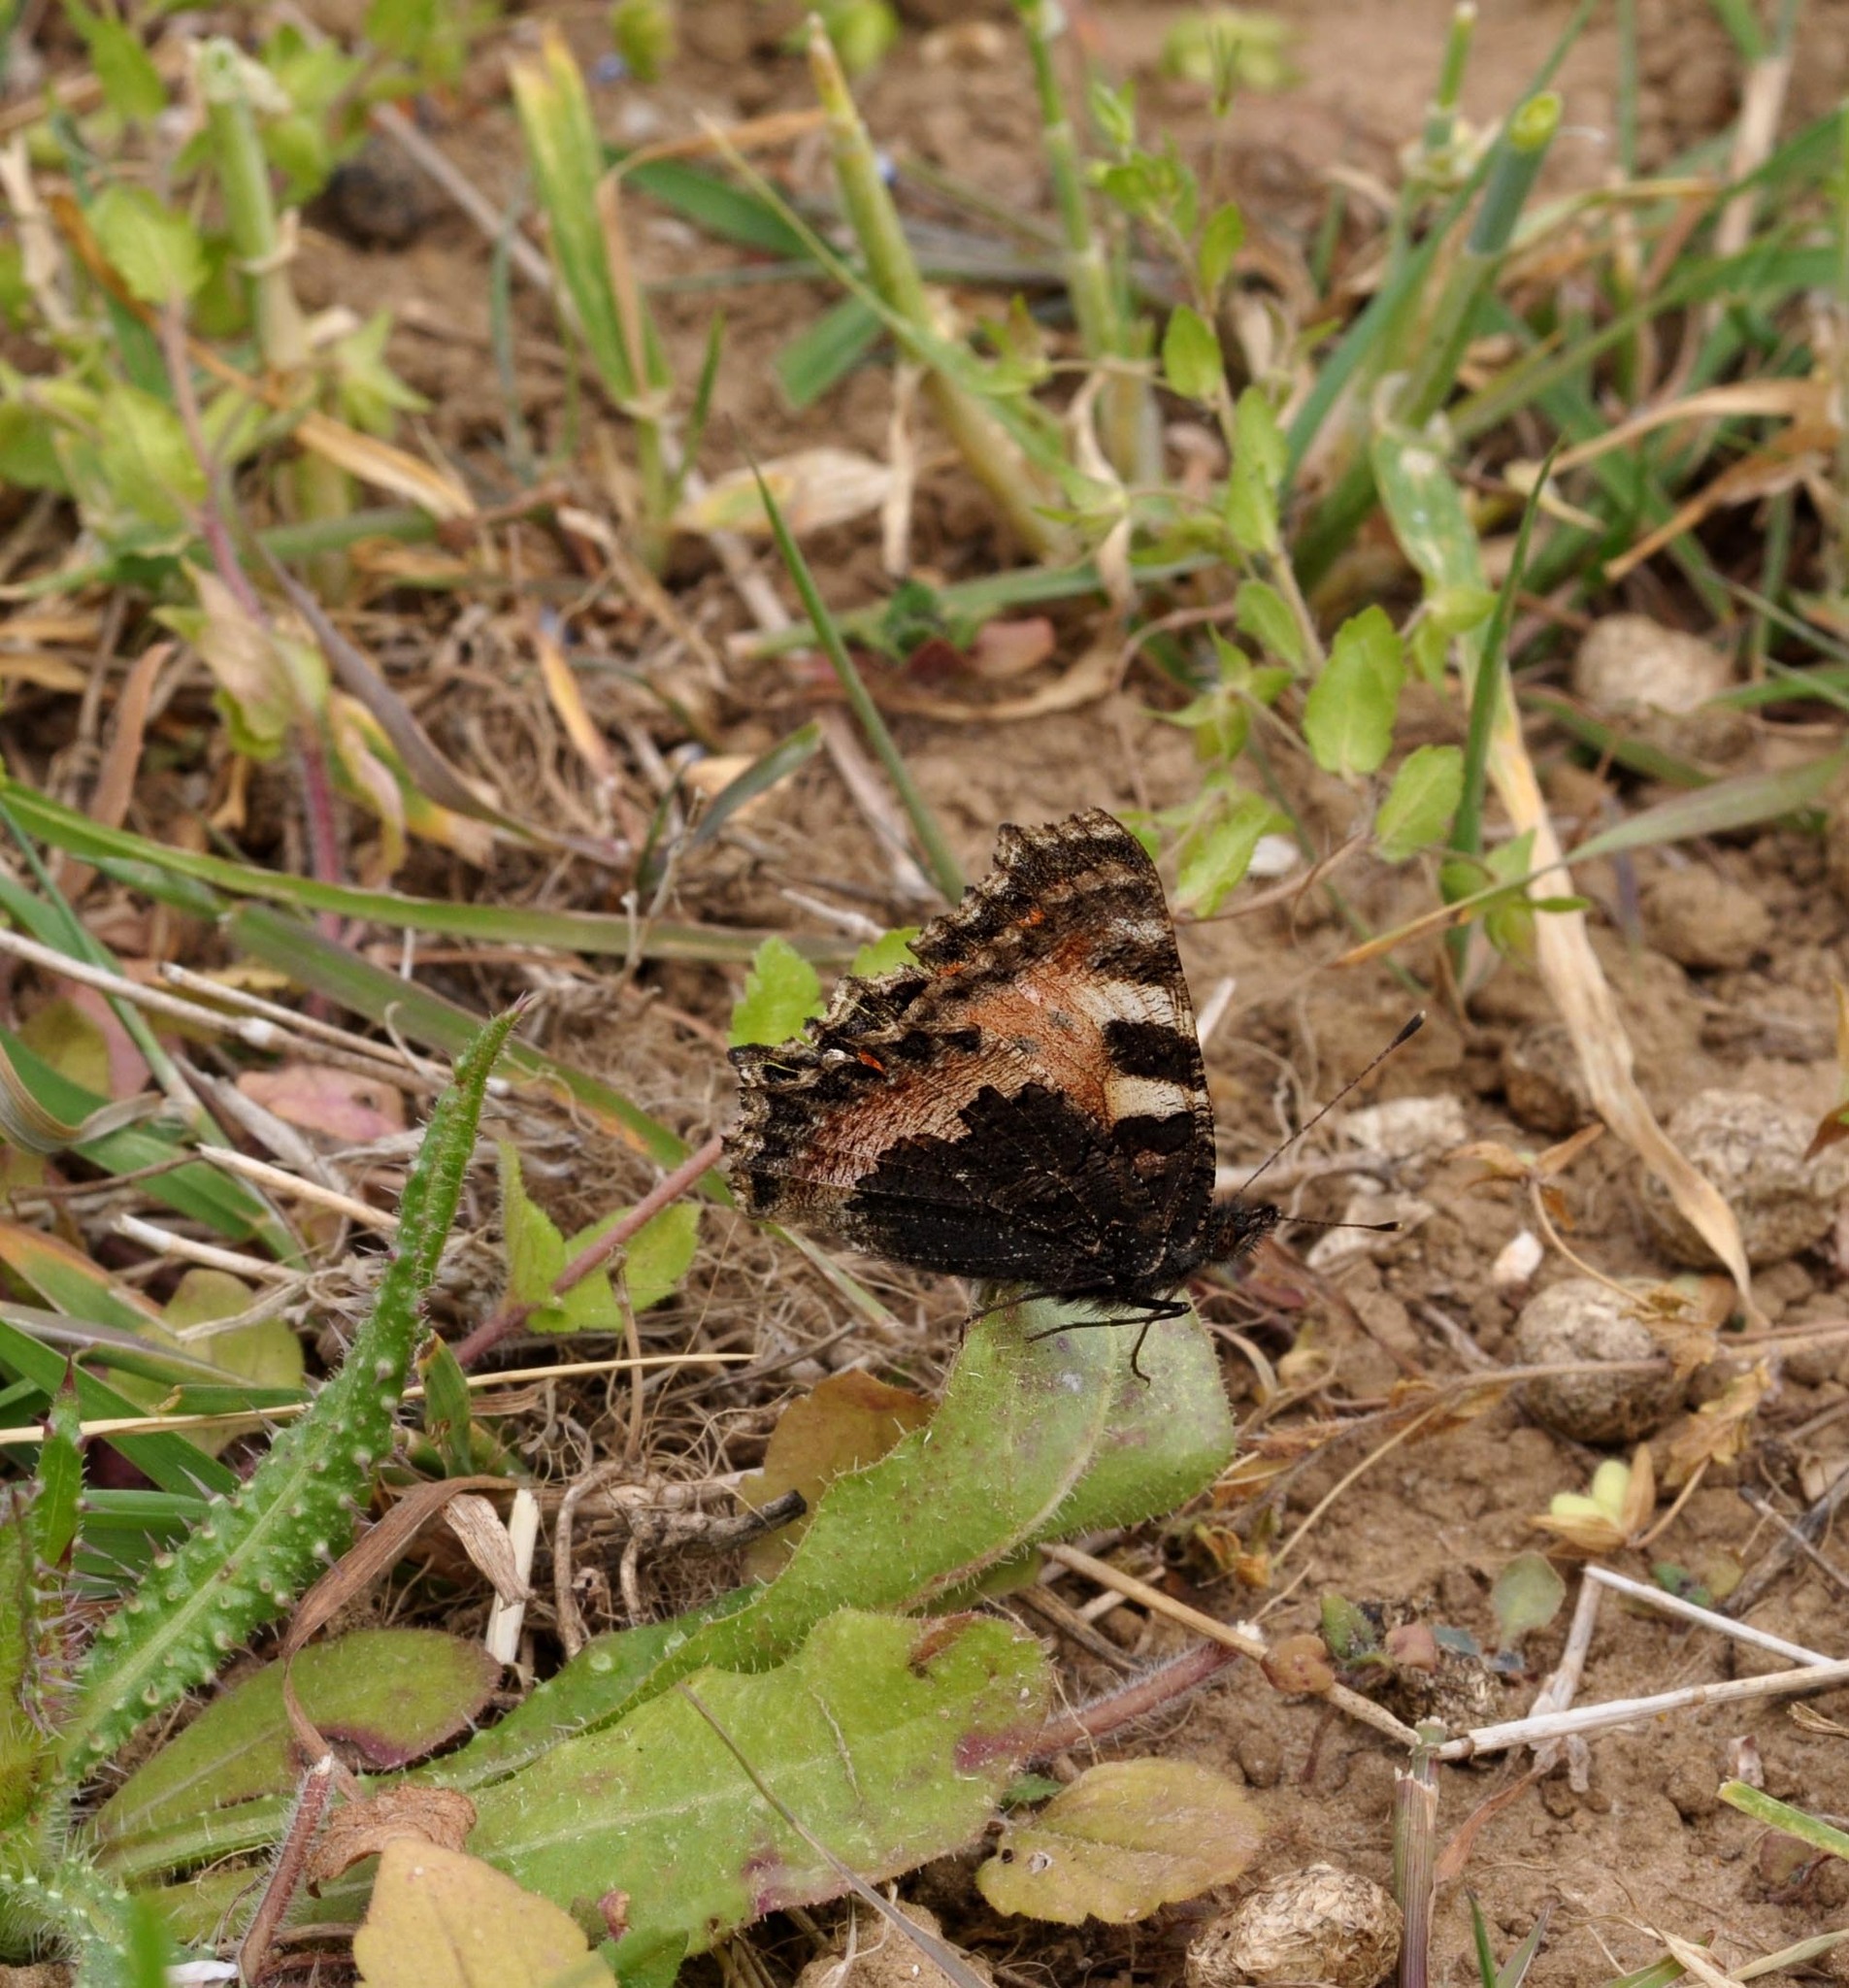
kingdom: Animalia
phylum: Arthropoda
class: Insecta
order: Lepidoptera
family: Nymphalidae
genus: Aglais
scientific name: Aglais urticae
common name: Small tortoiseshell
